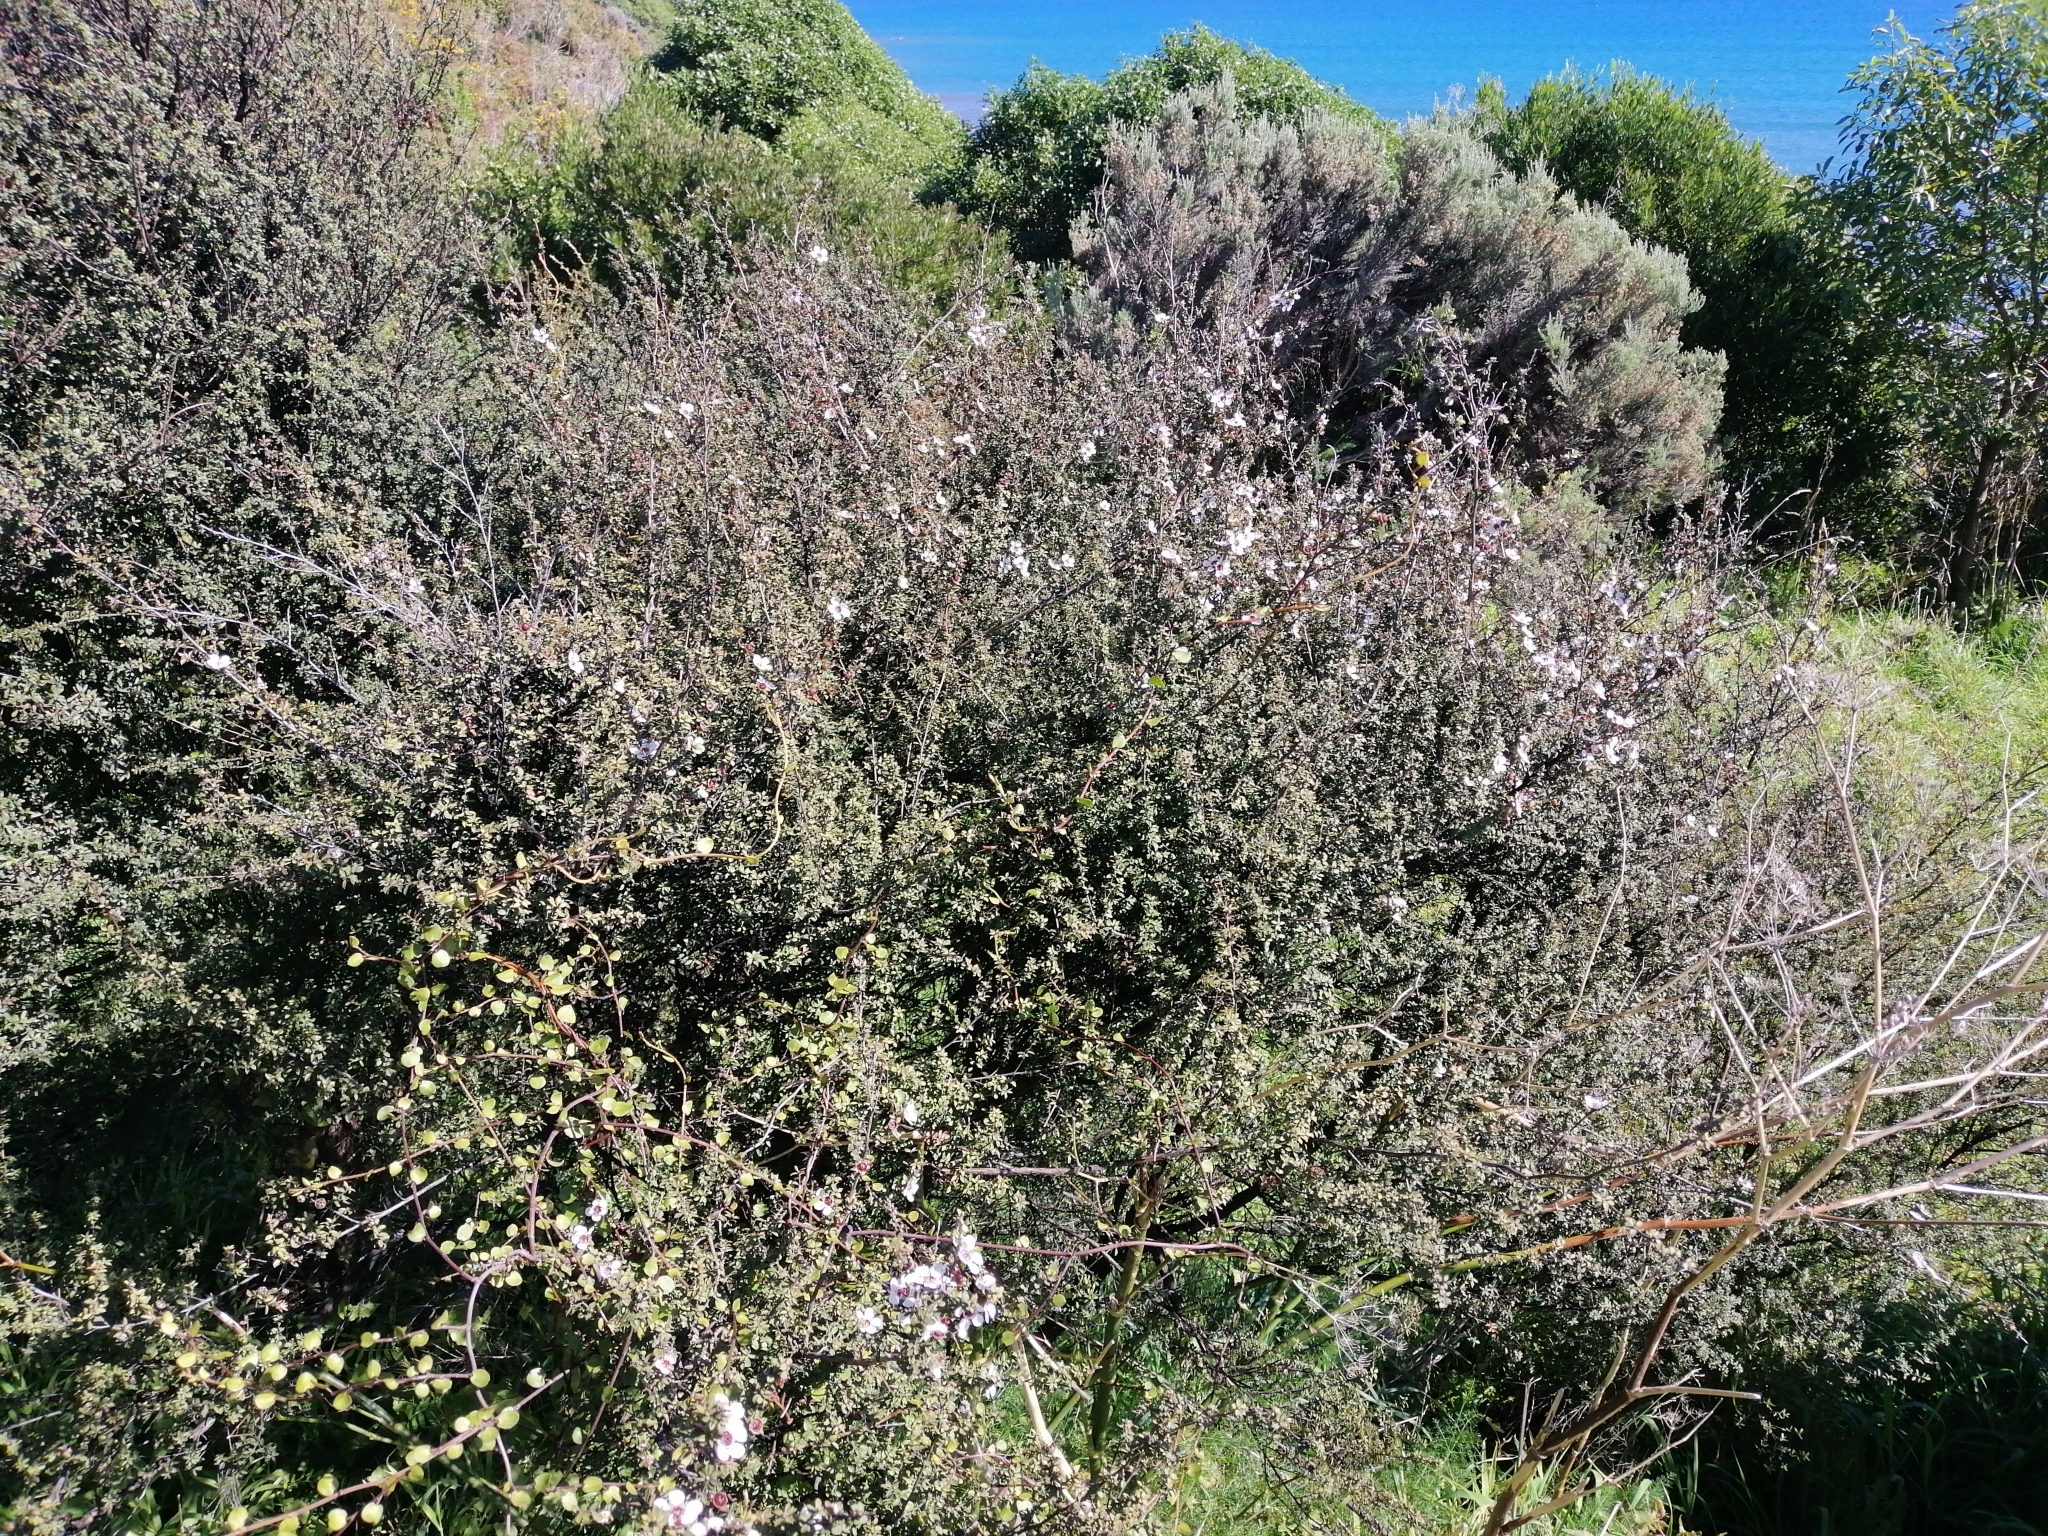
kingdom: Plantae
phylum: Tracheophyta
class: Magnoliopsida
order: Myrtales
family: Myrtaceae
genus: Leptospermum
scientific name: Leptospermum scoparium
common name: Broom tea-tree
